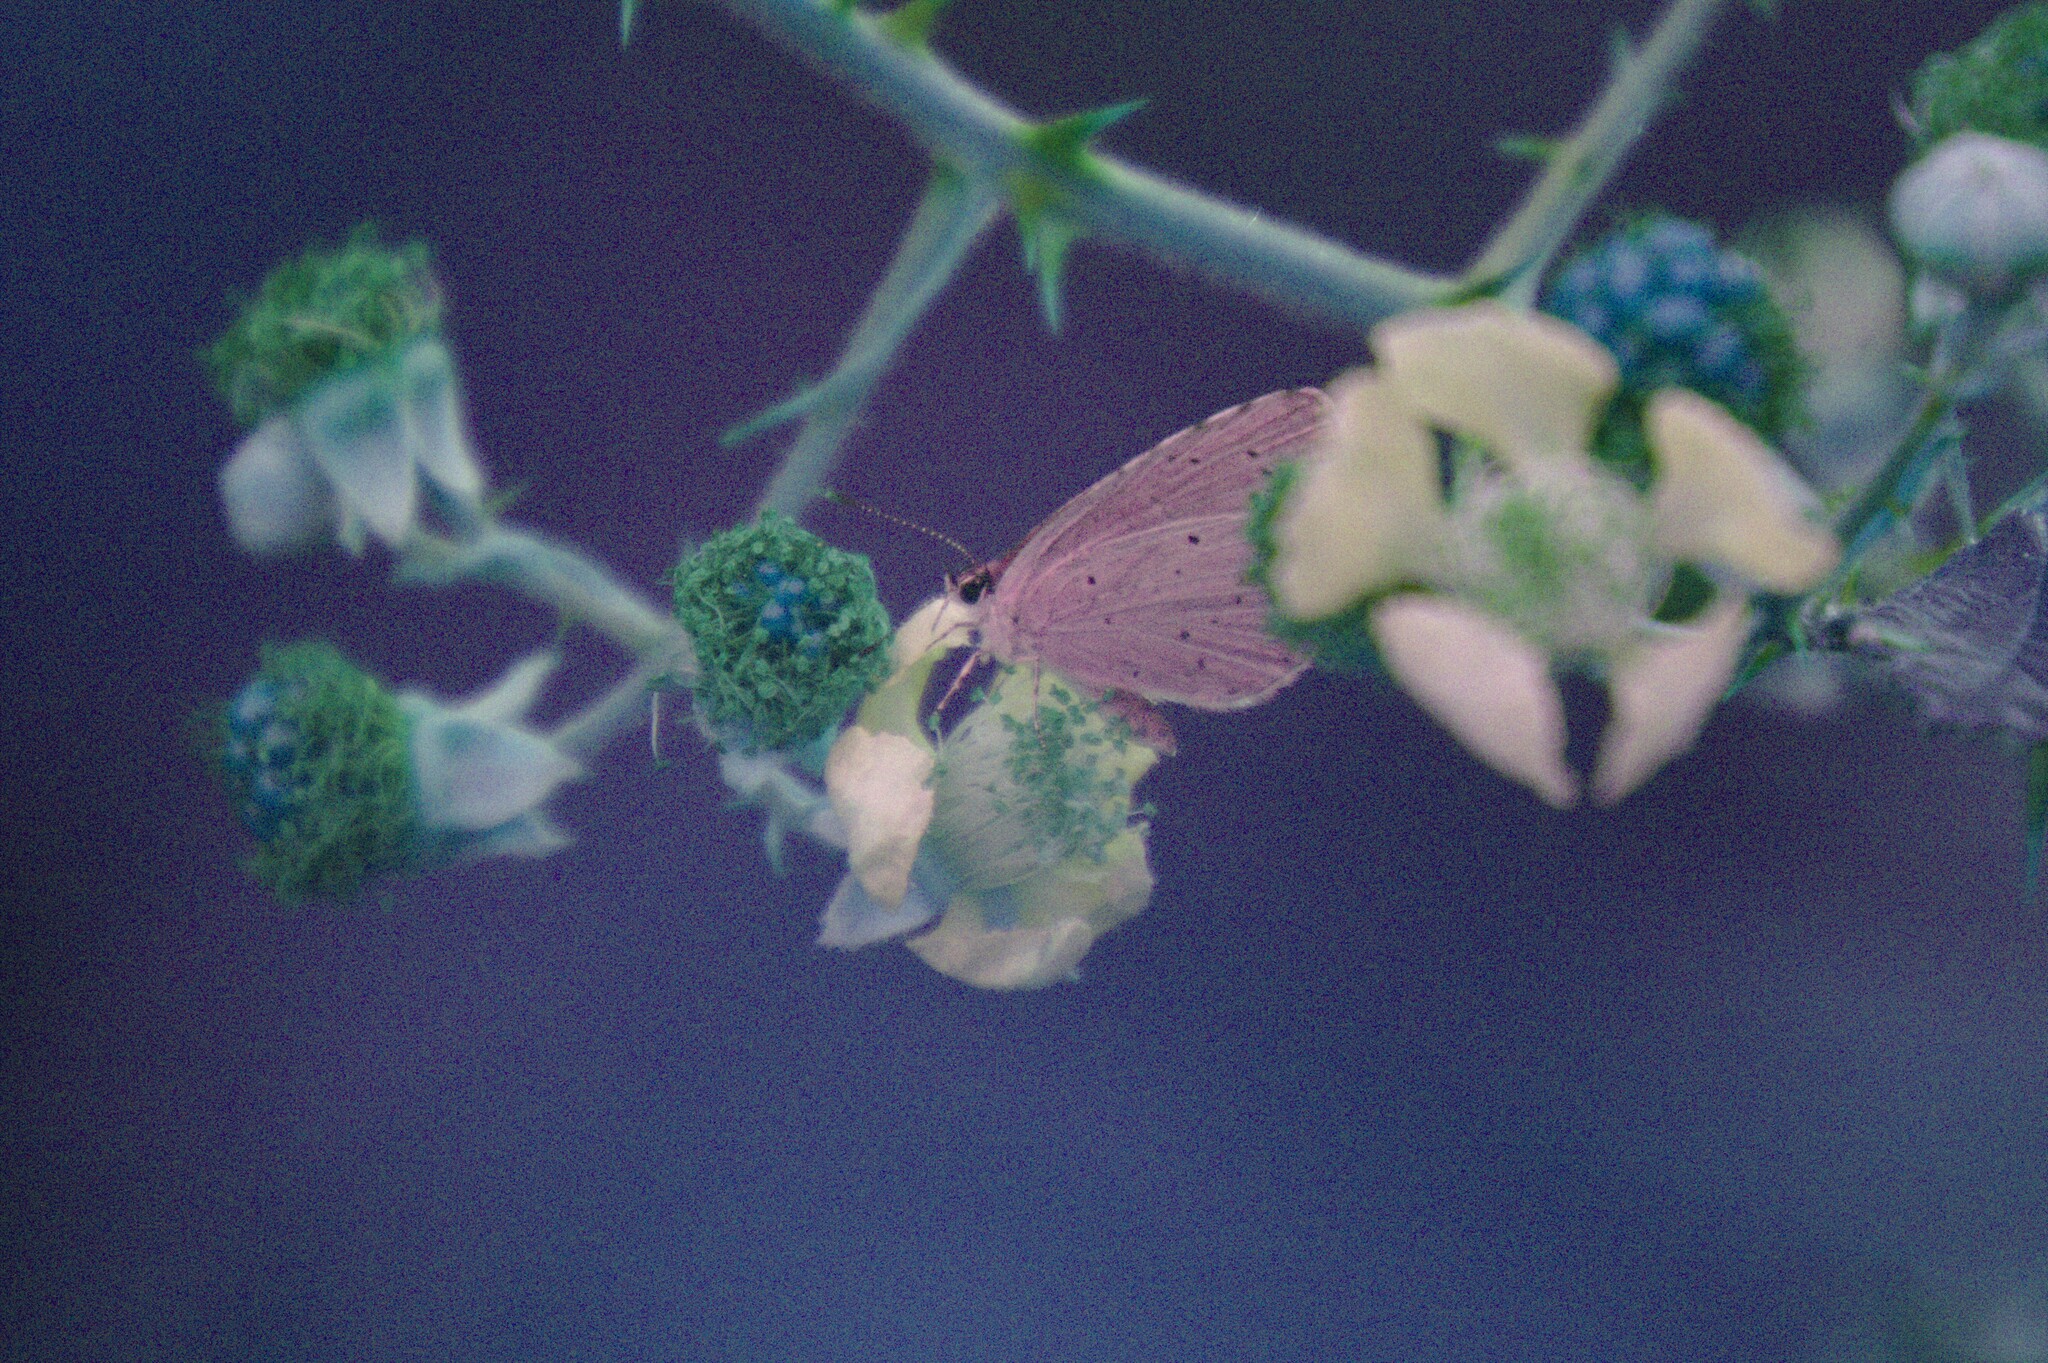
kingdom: Animalia
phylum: Arthropoda
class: Insecta
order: Lepidoptera
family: Lycaenidae
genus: Celastrina
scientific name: Celastrina argiolus
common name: Holly blue
